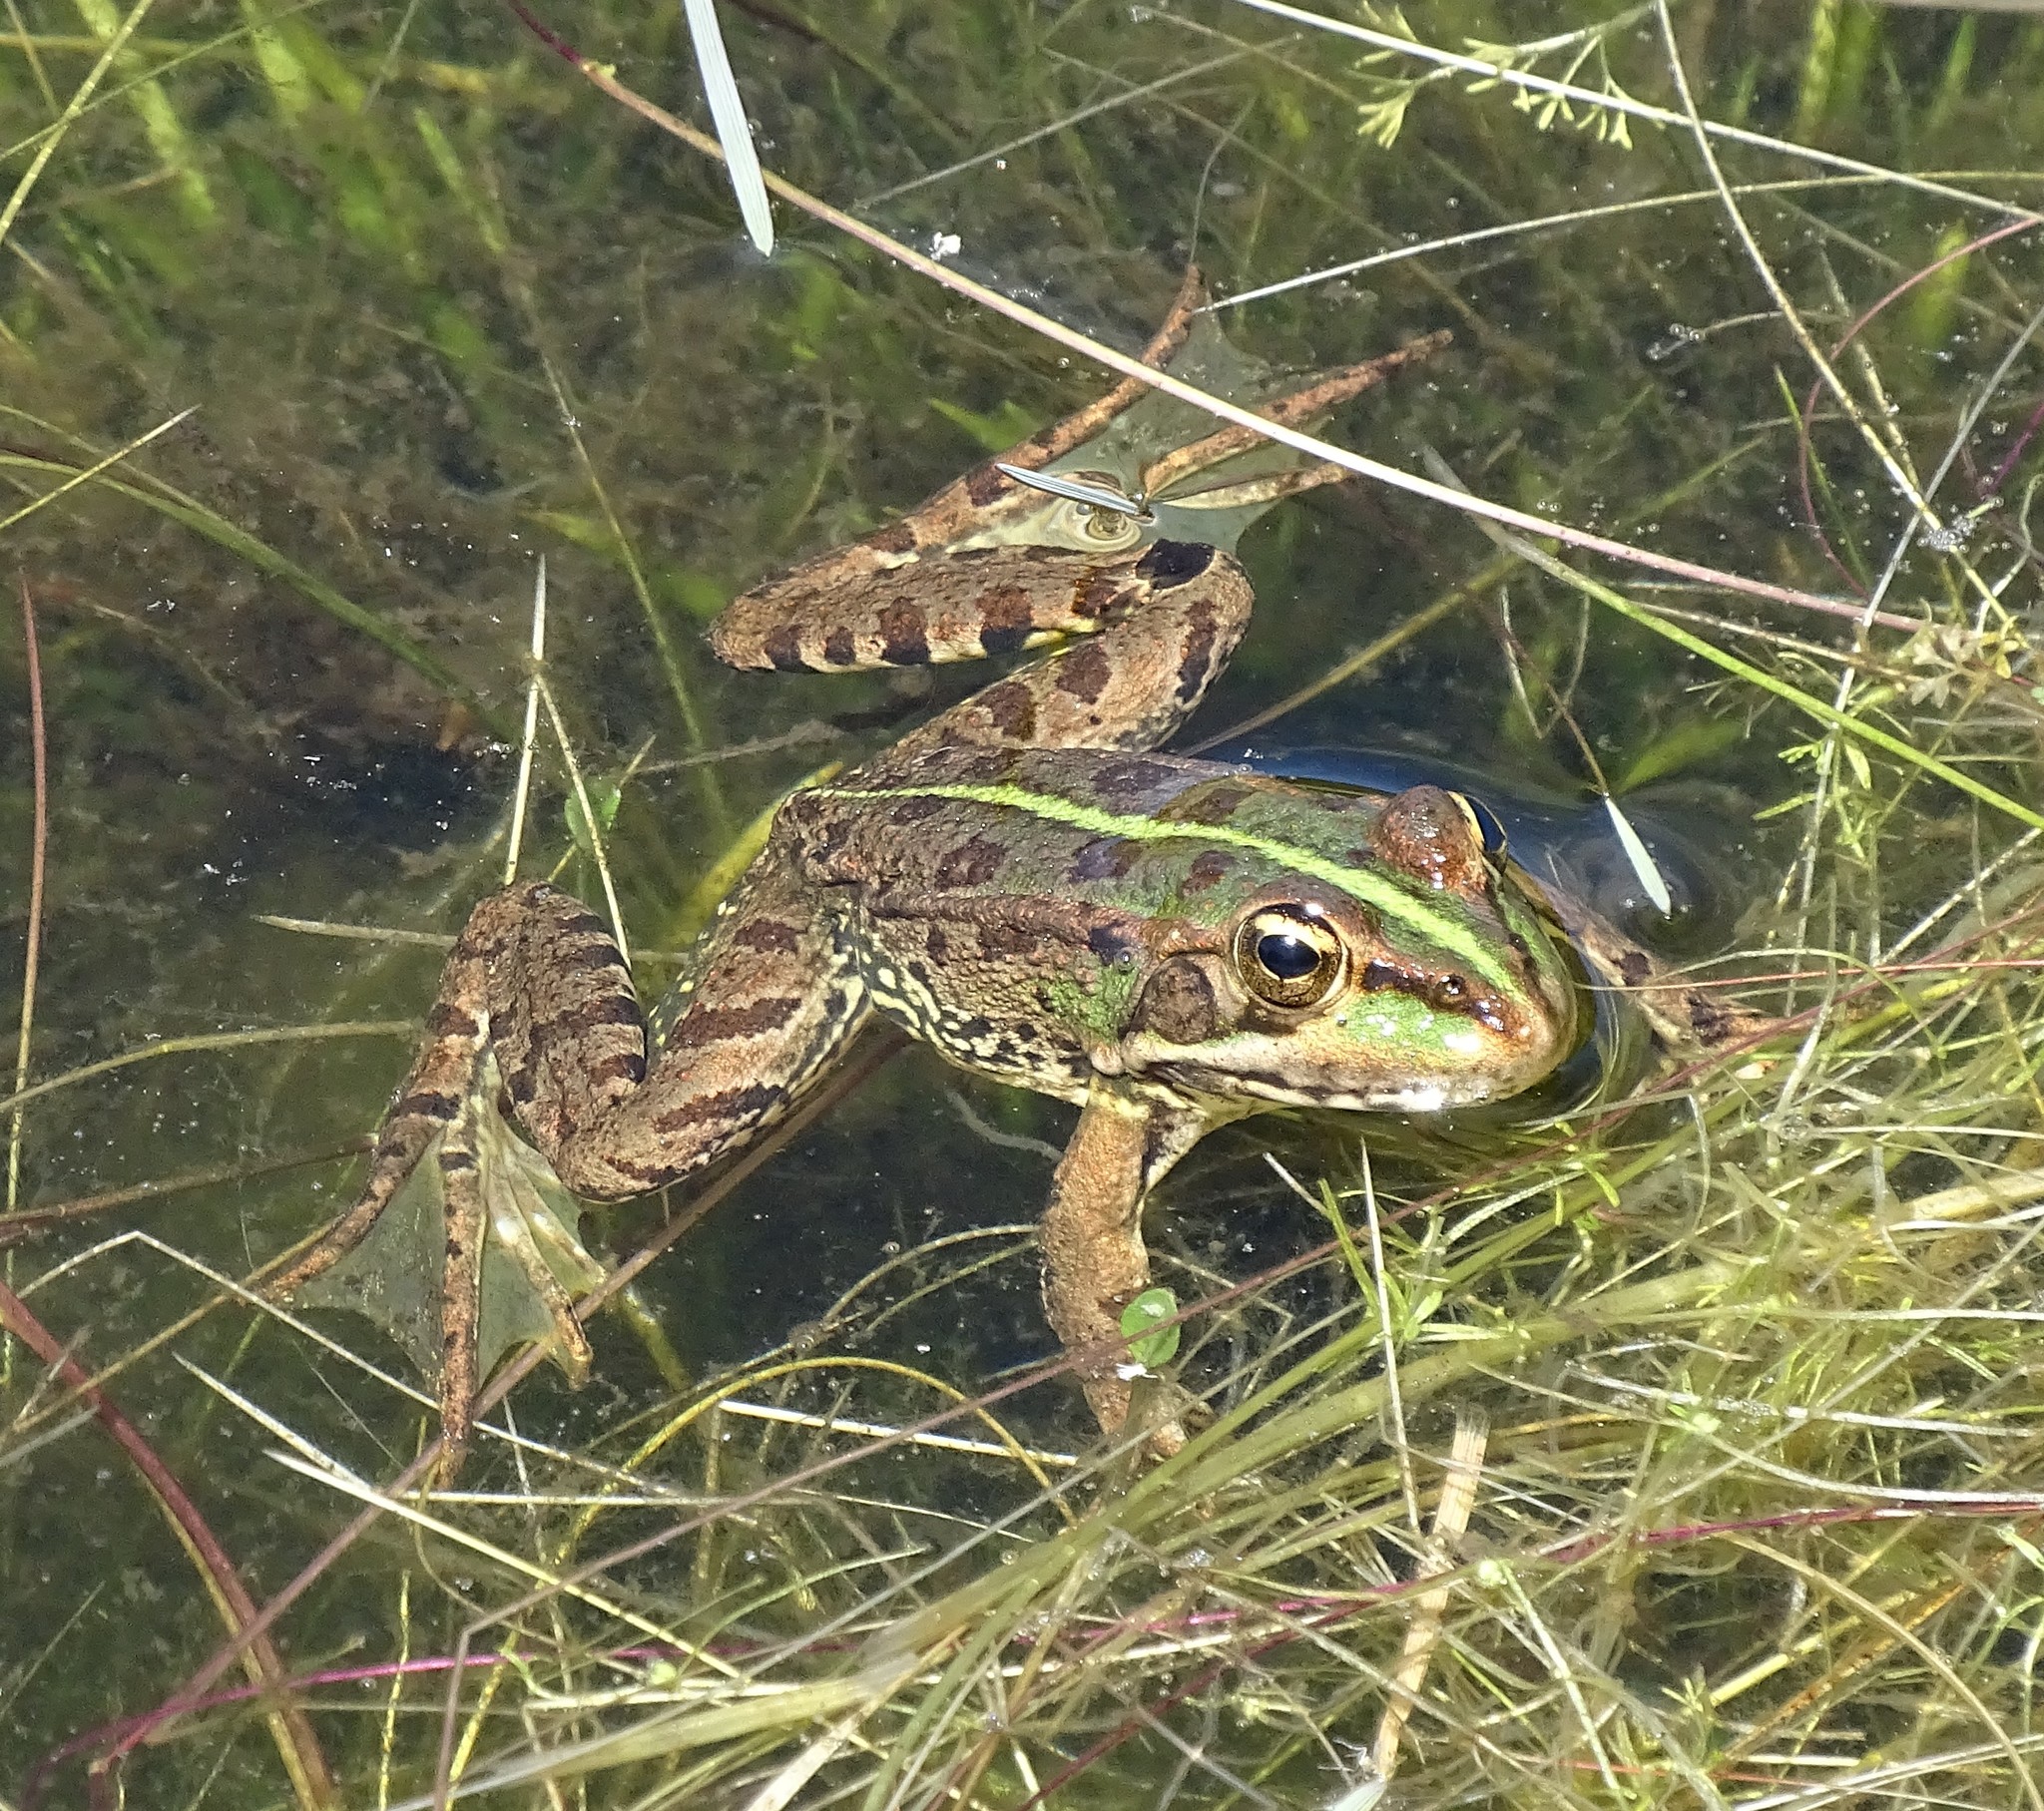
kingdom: Animalia
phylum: Chordata
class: Amphibia
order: Anura
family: Ranidae
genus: Pelophylax
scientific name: Pelophylax perezi
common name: Perez's frog
